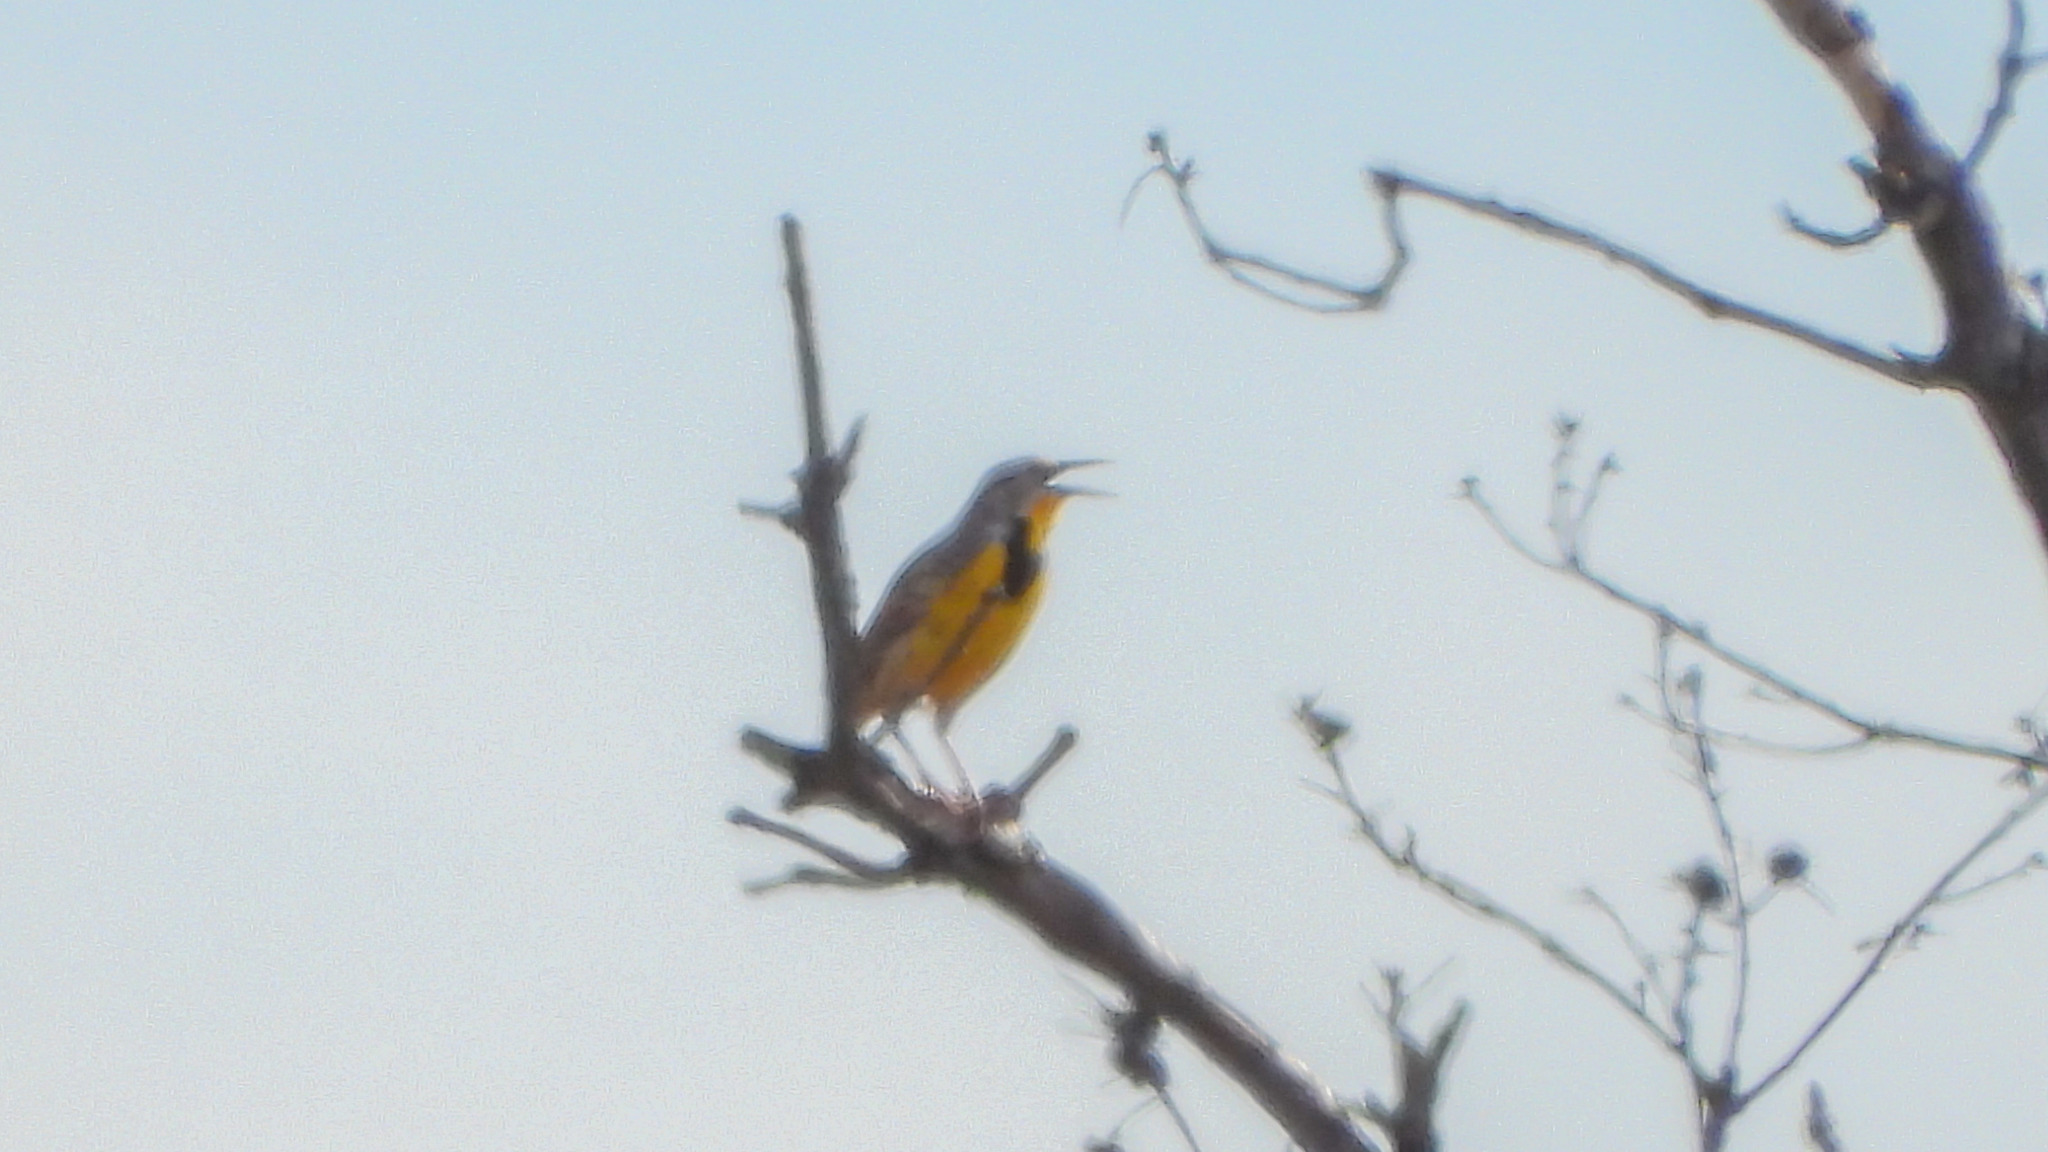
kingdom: Animalia
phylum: Chordata
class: Aves
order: Passeriformes
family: Icteridae
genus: Sturnella
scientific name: Sturnella magna
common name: Eastern meadowlark
